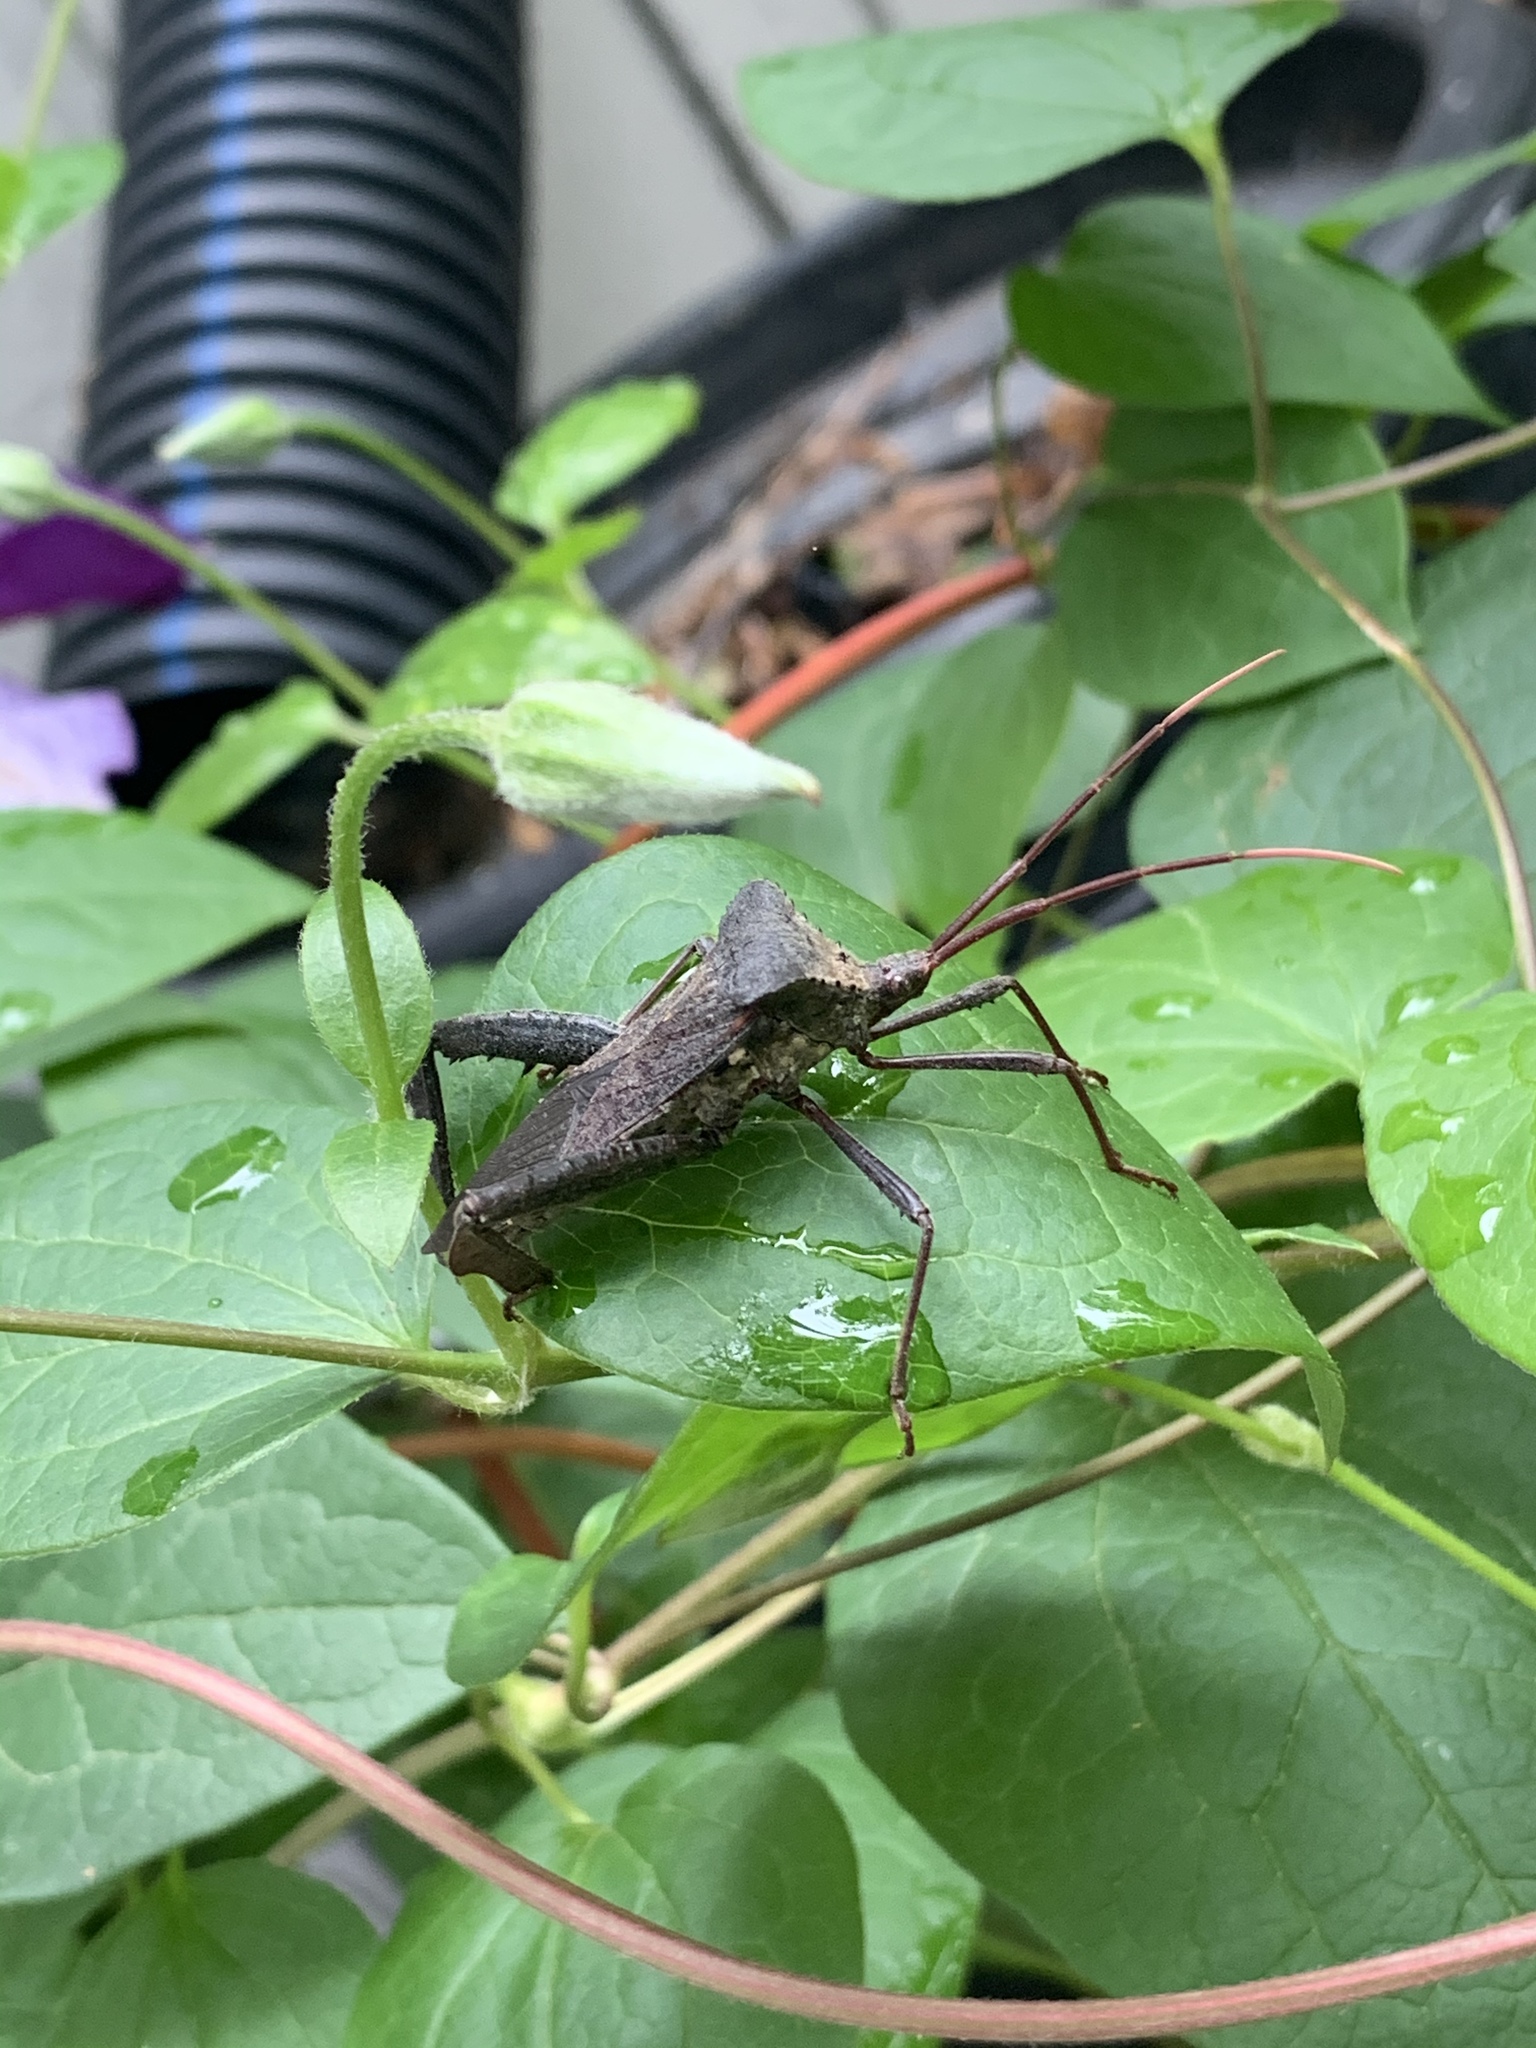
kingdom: Animalia
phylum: Arthropoda
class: Insecta
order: Hemiptera
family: Coreidae
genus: Acanthocephala
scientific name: Acanthocephala declivis
